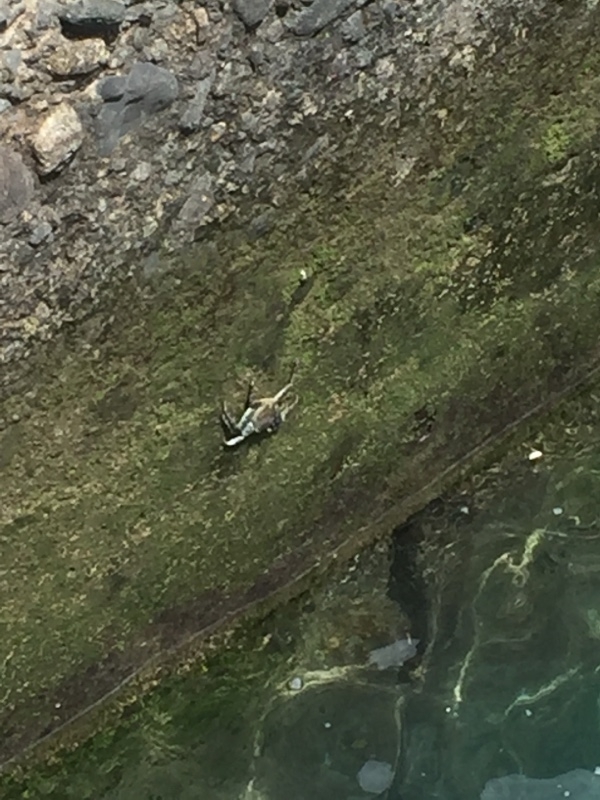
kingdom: Animalia
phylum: Arthropoda
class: Malacostraca
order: Decapoda
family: Grapsidae
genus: Grapsus
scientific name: Grapsus adscensionis
